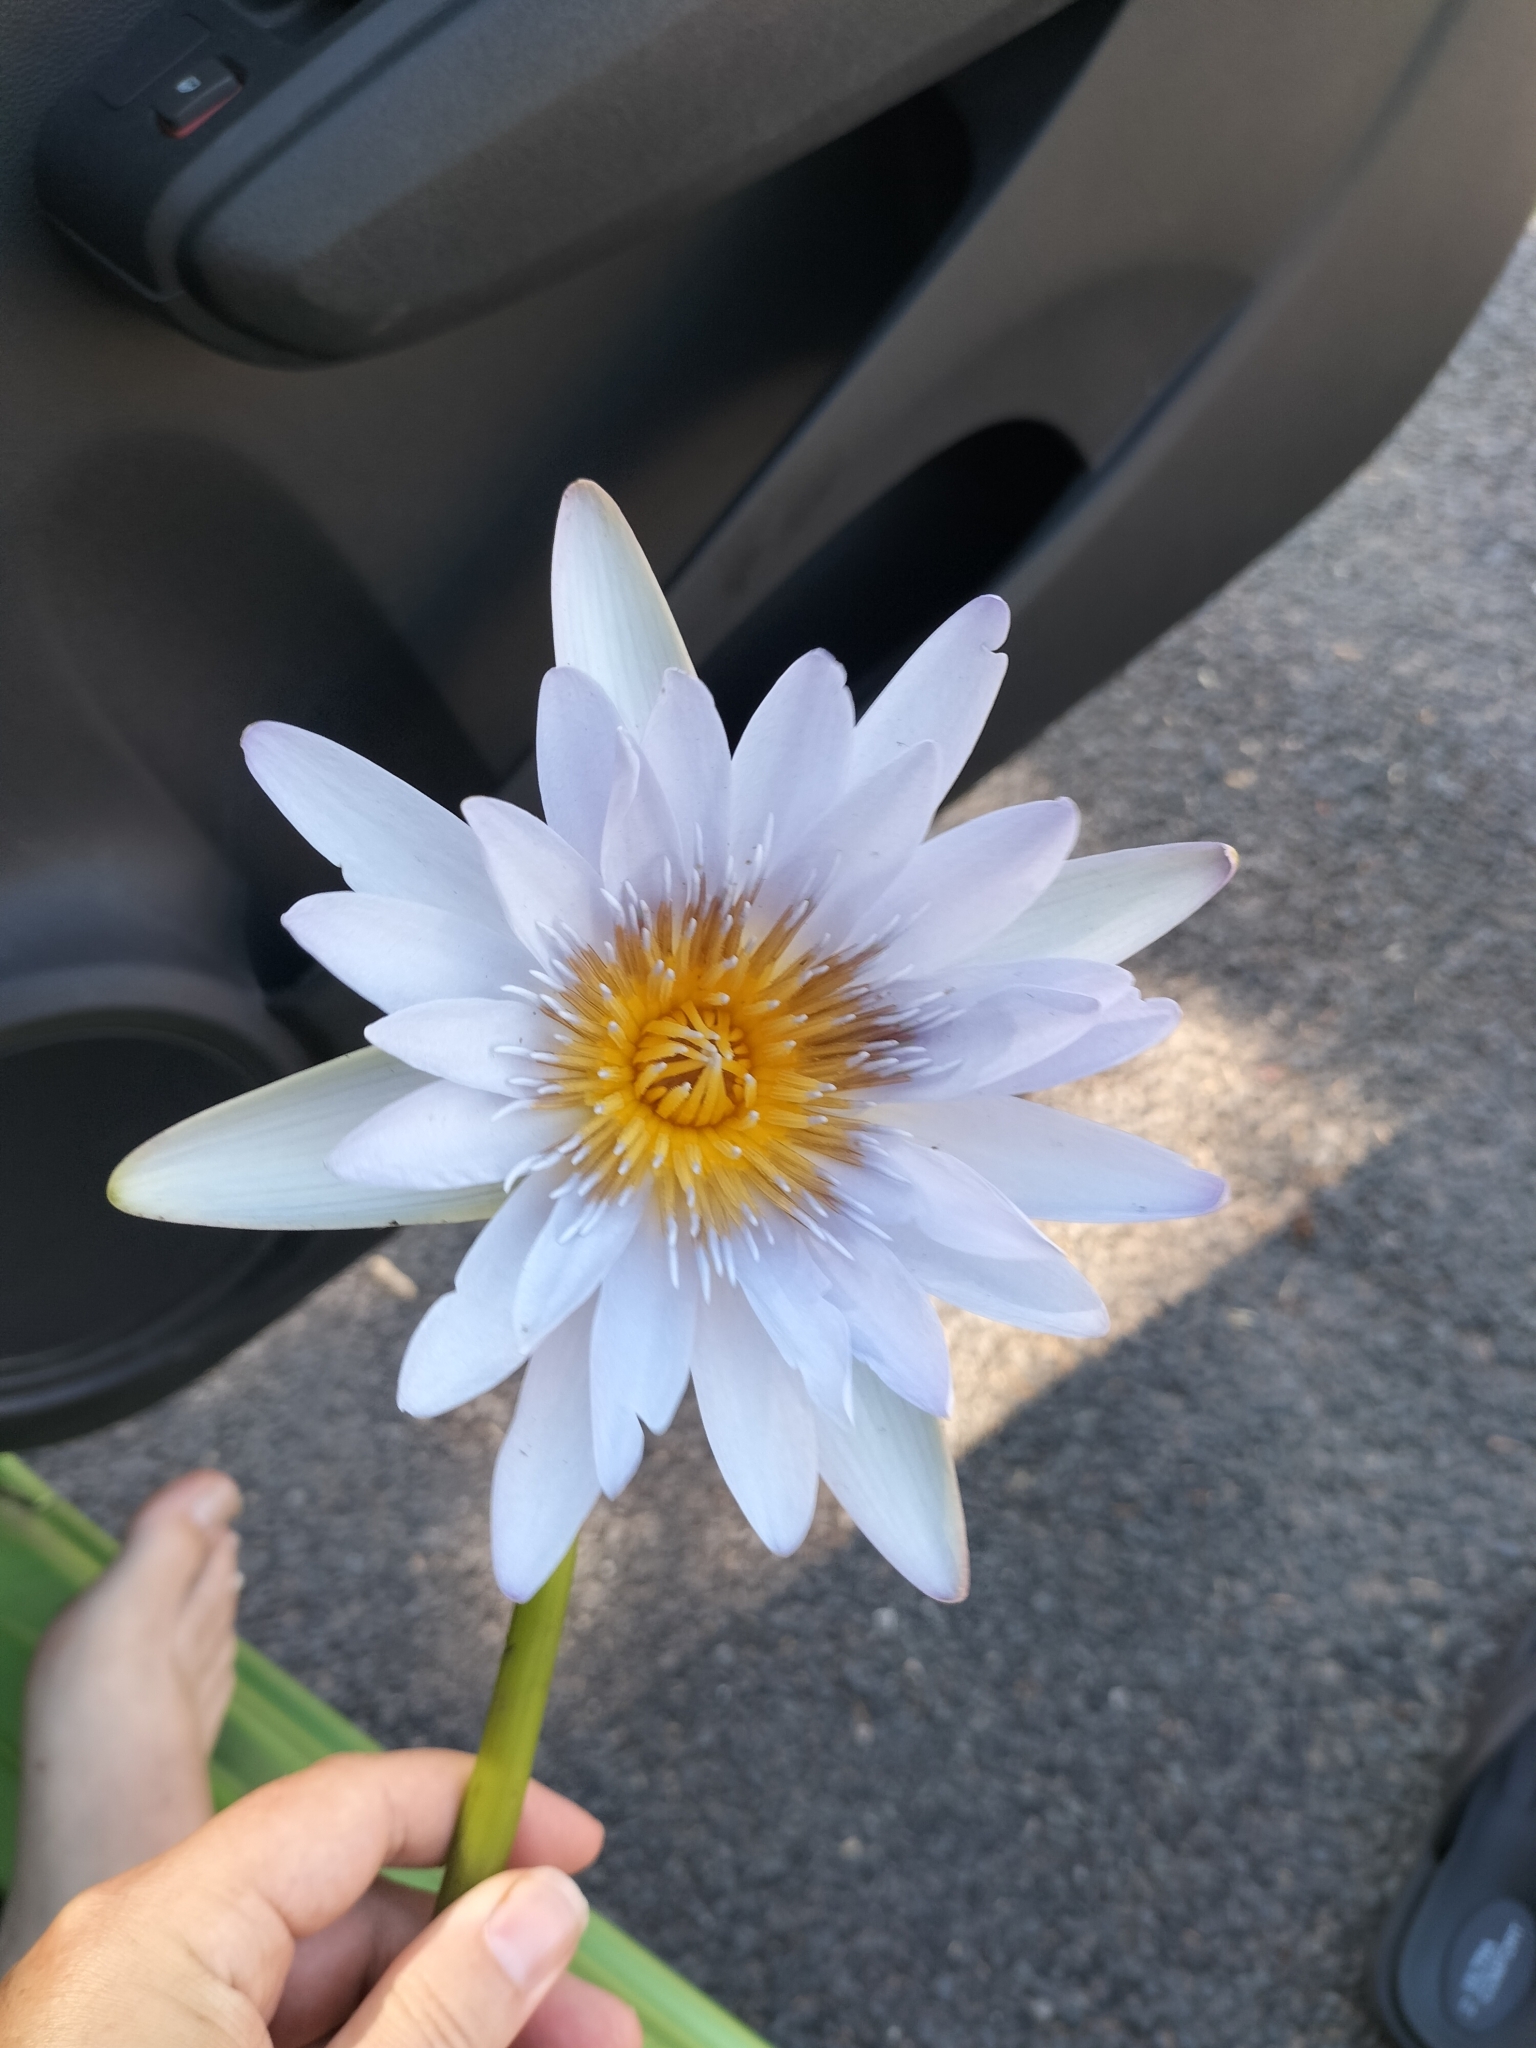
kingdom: Plantae
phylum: Tracheophyta
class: Magnoliopsida
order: Nymphaeales
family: Nymphaeaceae
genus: Nymphaea
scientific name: Nymphaea gigantea
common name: Giant water-lily
